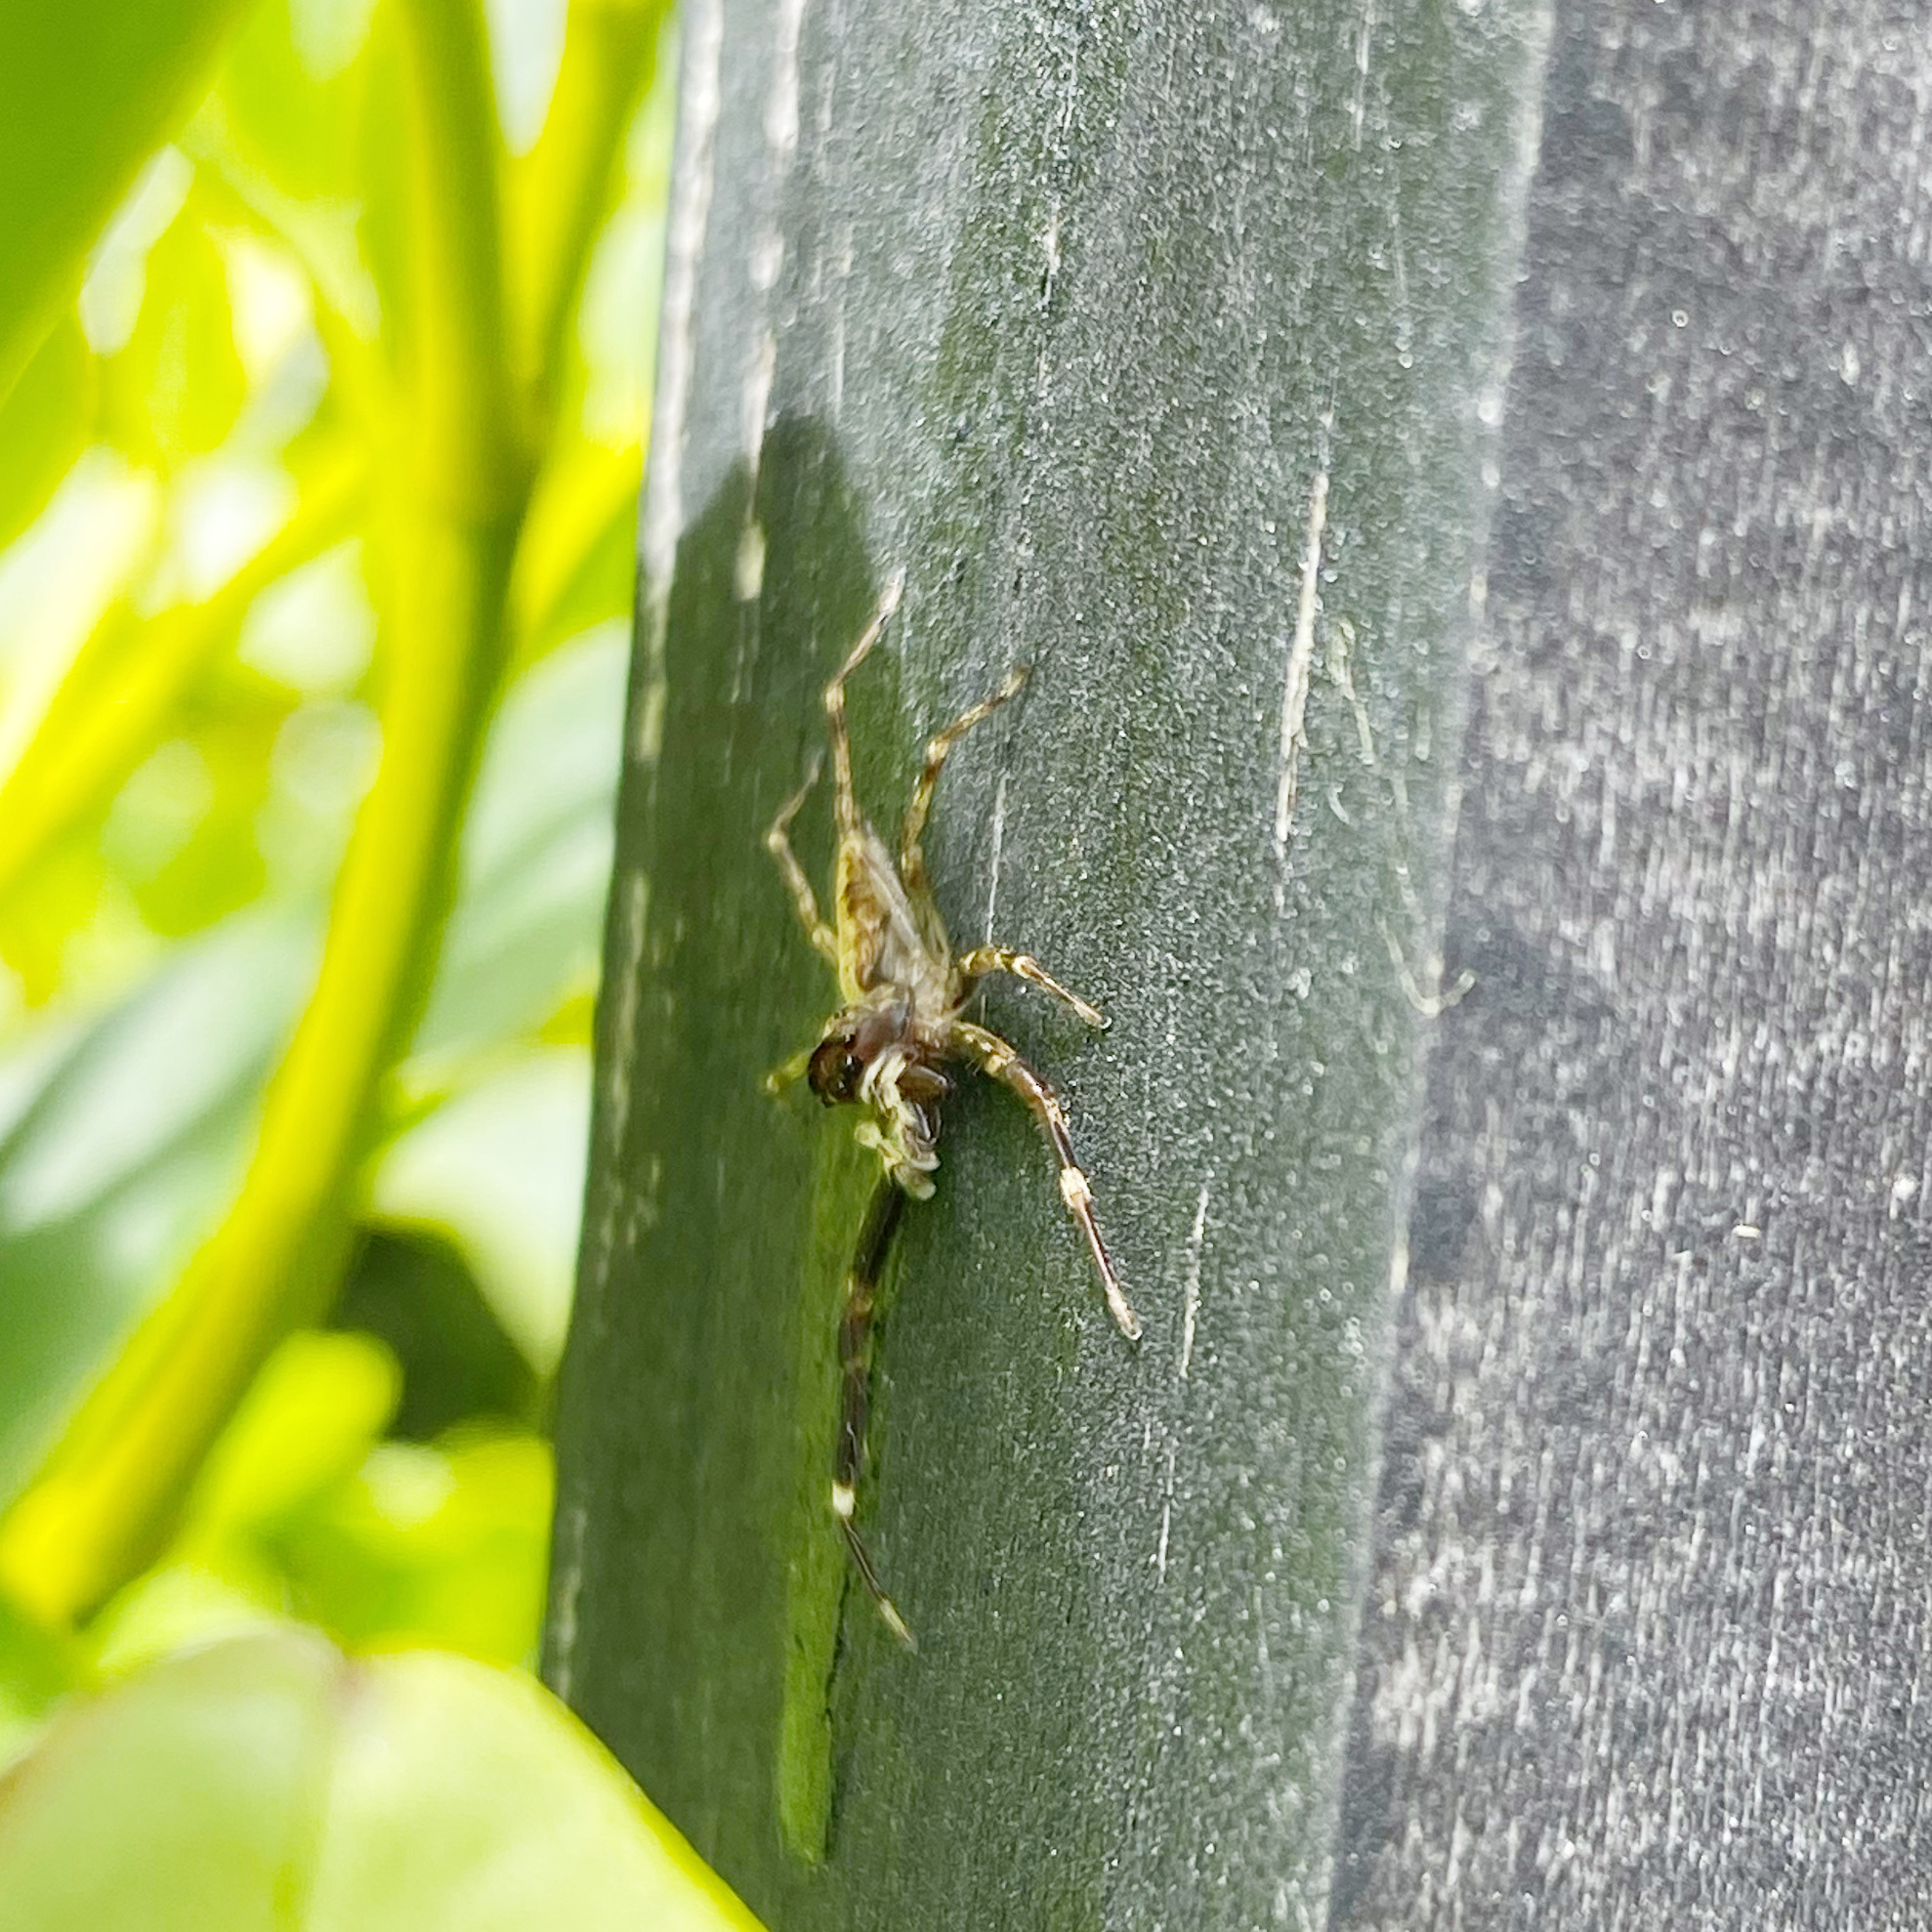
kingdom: Animalia
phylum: Arthropoda
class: Arachnida
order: Araneae
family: Salticidae
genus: Helpis
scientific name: Helpis minitabunda
